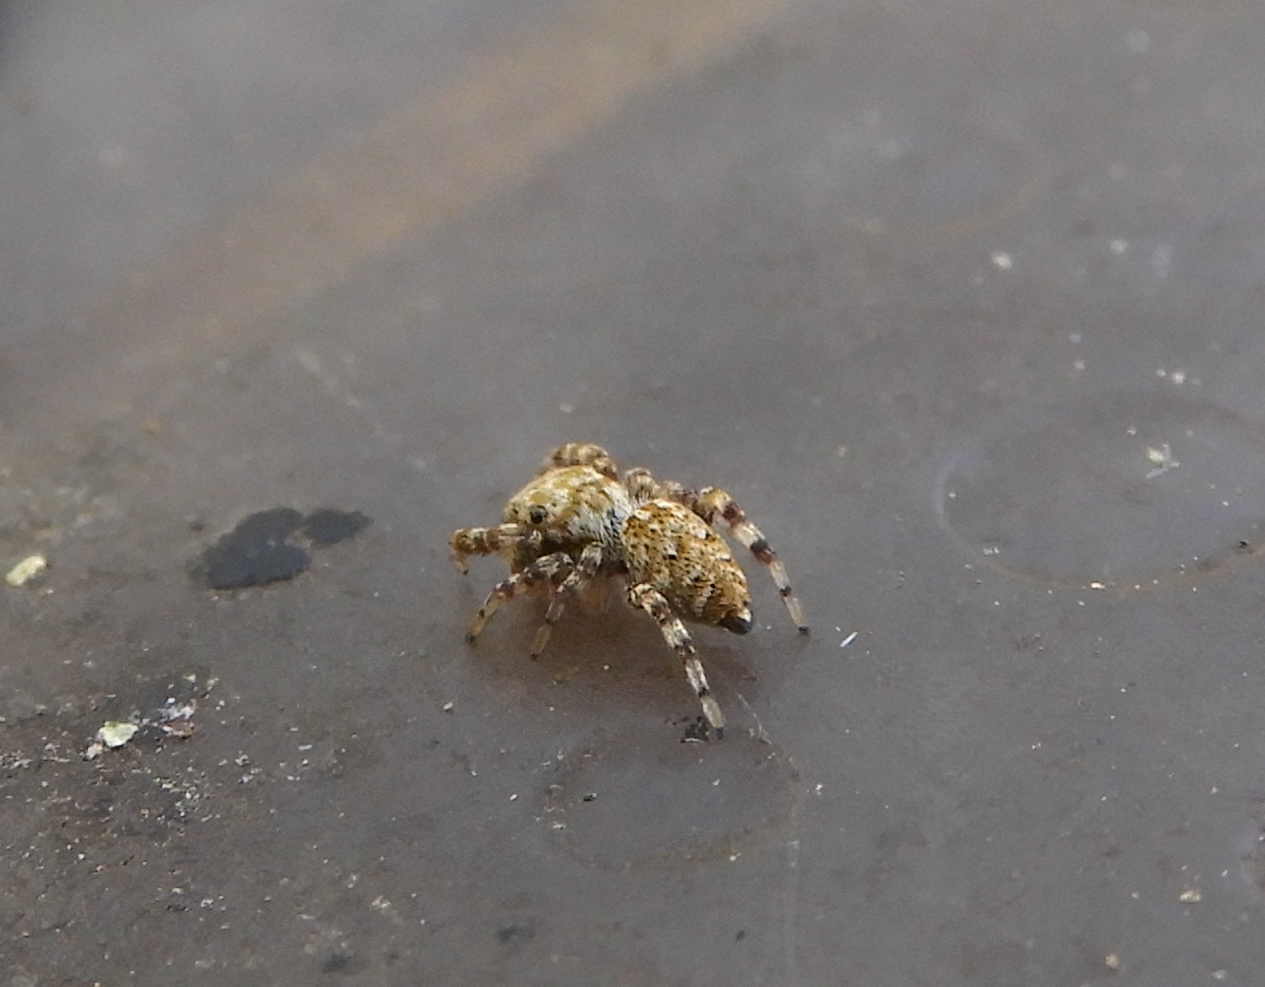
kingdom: Animalia
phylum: Arthropoda
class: Arachnida
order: Araneae
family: Salticidae
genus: Pelegrina
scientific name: Pelegrina
